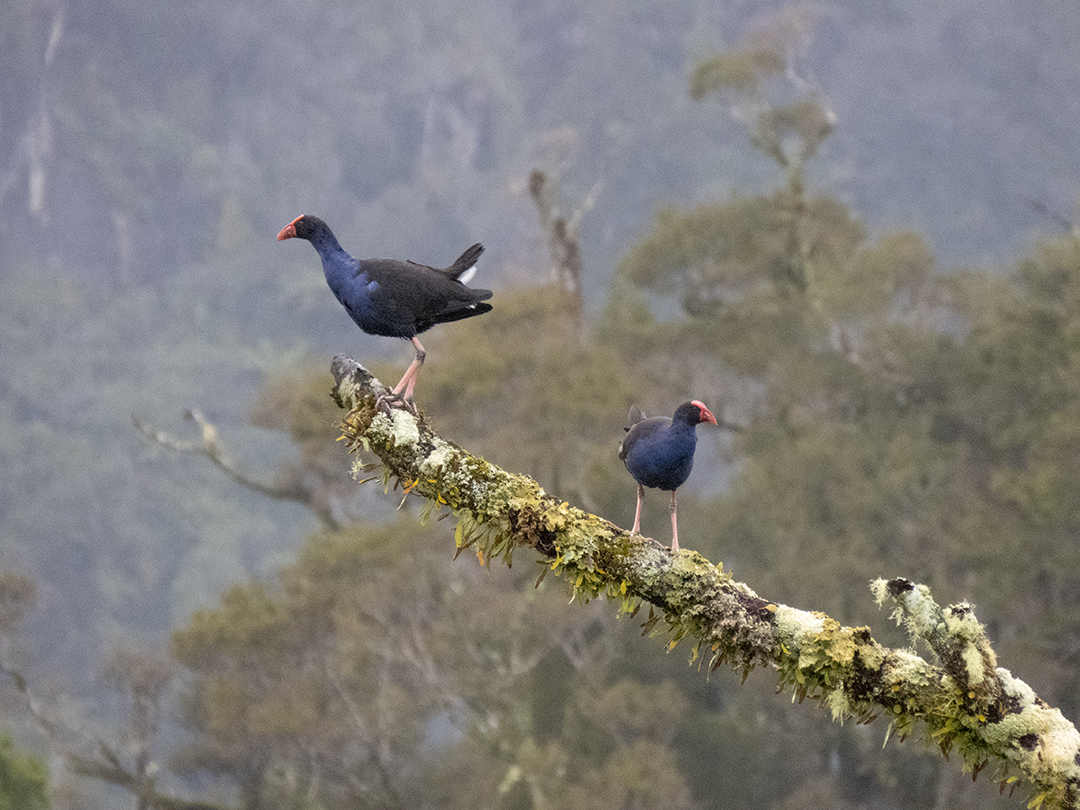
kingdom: Animalia
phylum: Chordata
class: Aves
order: Gruiformes
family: Rallidae
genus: Porphyrio
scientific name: Porphyrio melanotus
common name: Australasian swamphen
